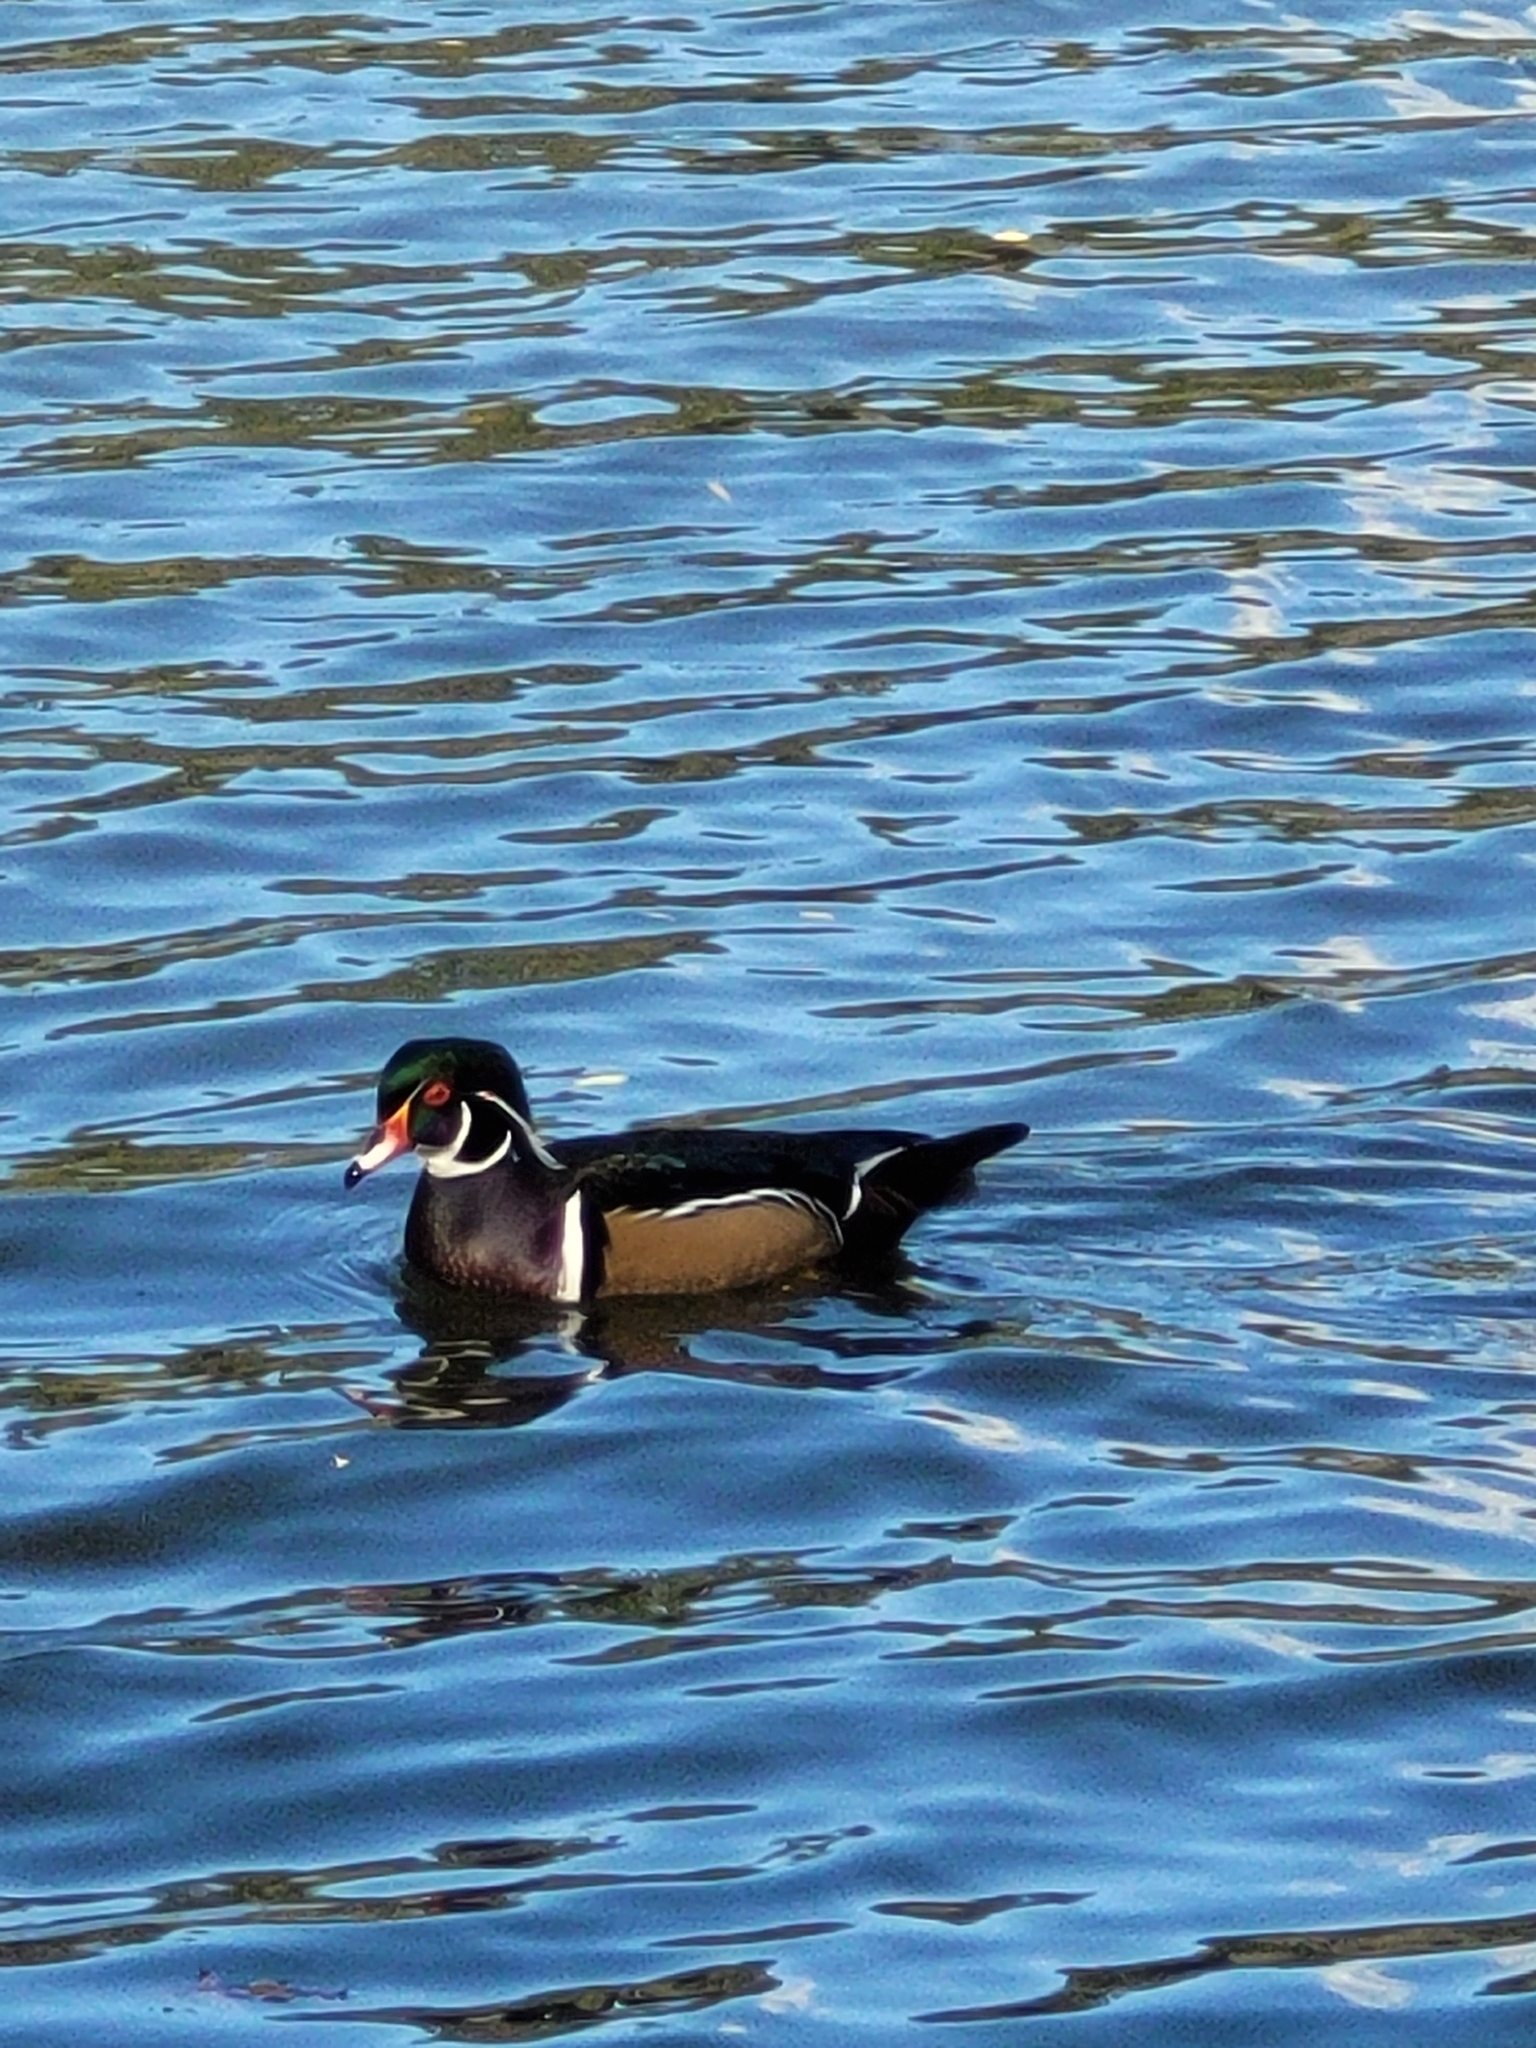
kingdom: Animalia
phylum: Chordata
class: Aves
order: Anseriformes
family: Anatidae
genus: Aix
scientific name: Aix sponsa
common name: Wood duck
